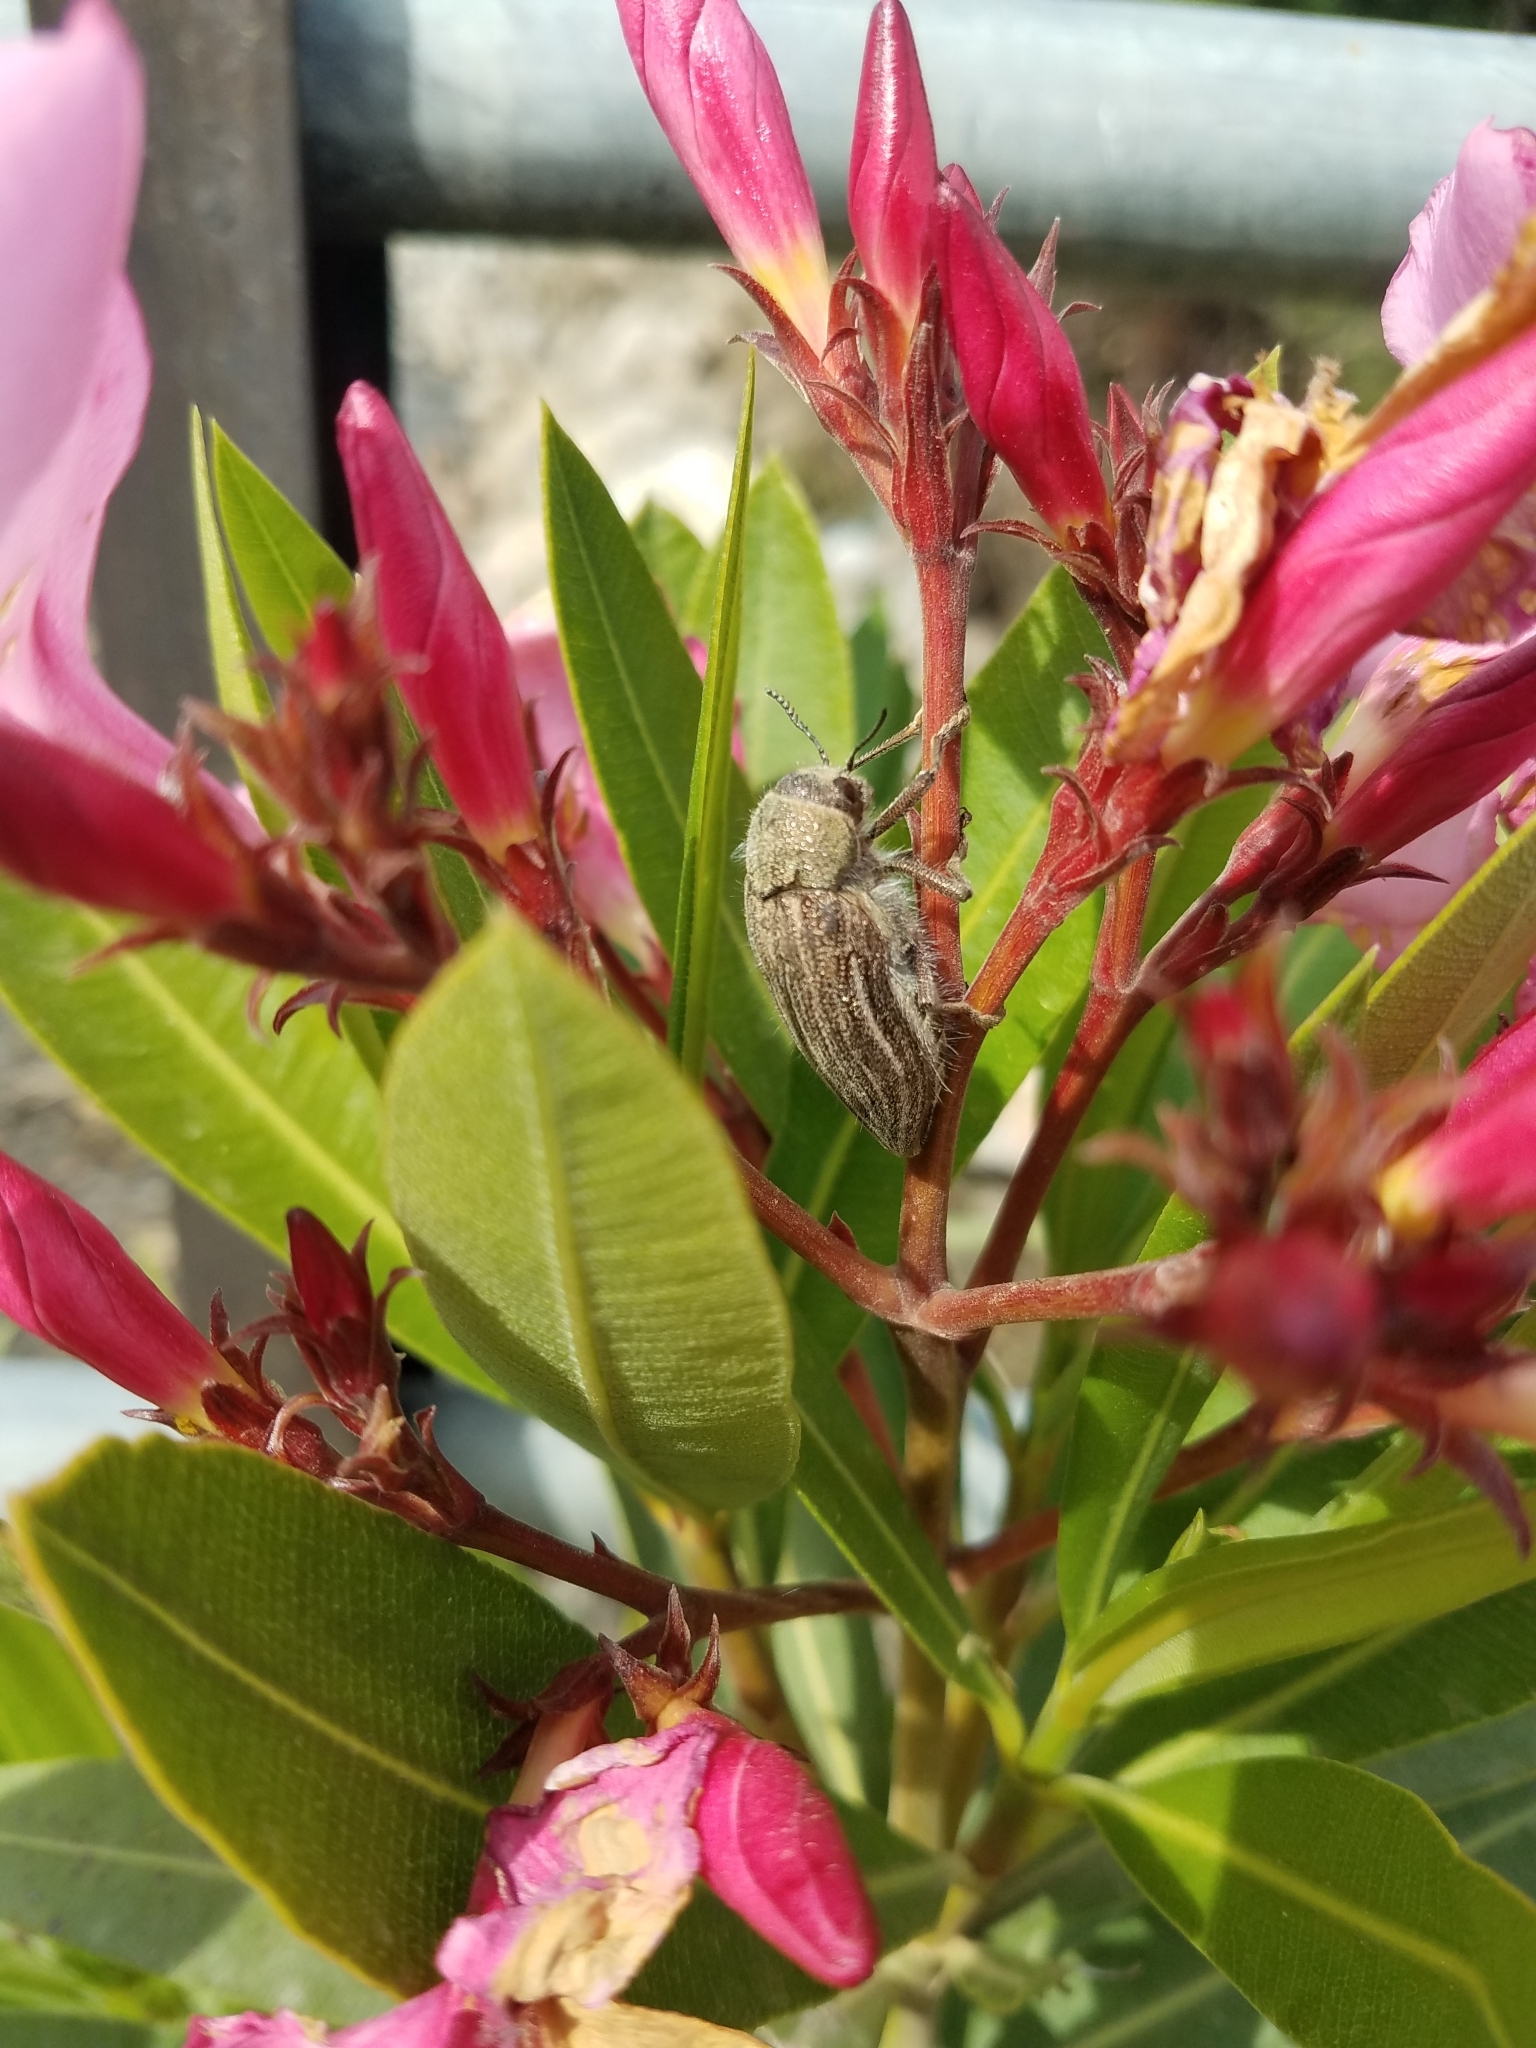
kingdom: Animalia
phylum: Arthropoda
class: Insecta
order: Coleoptera
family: Buprestidae
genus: Julodis
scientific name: Julodis pubescens
